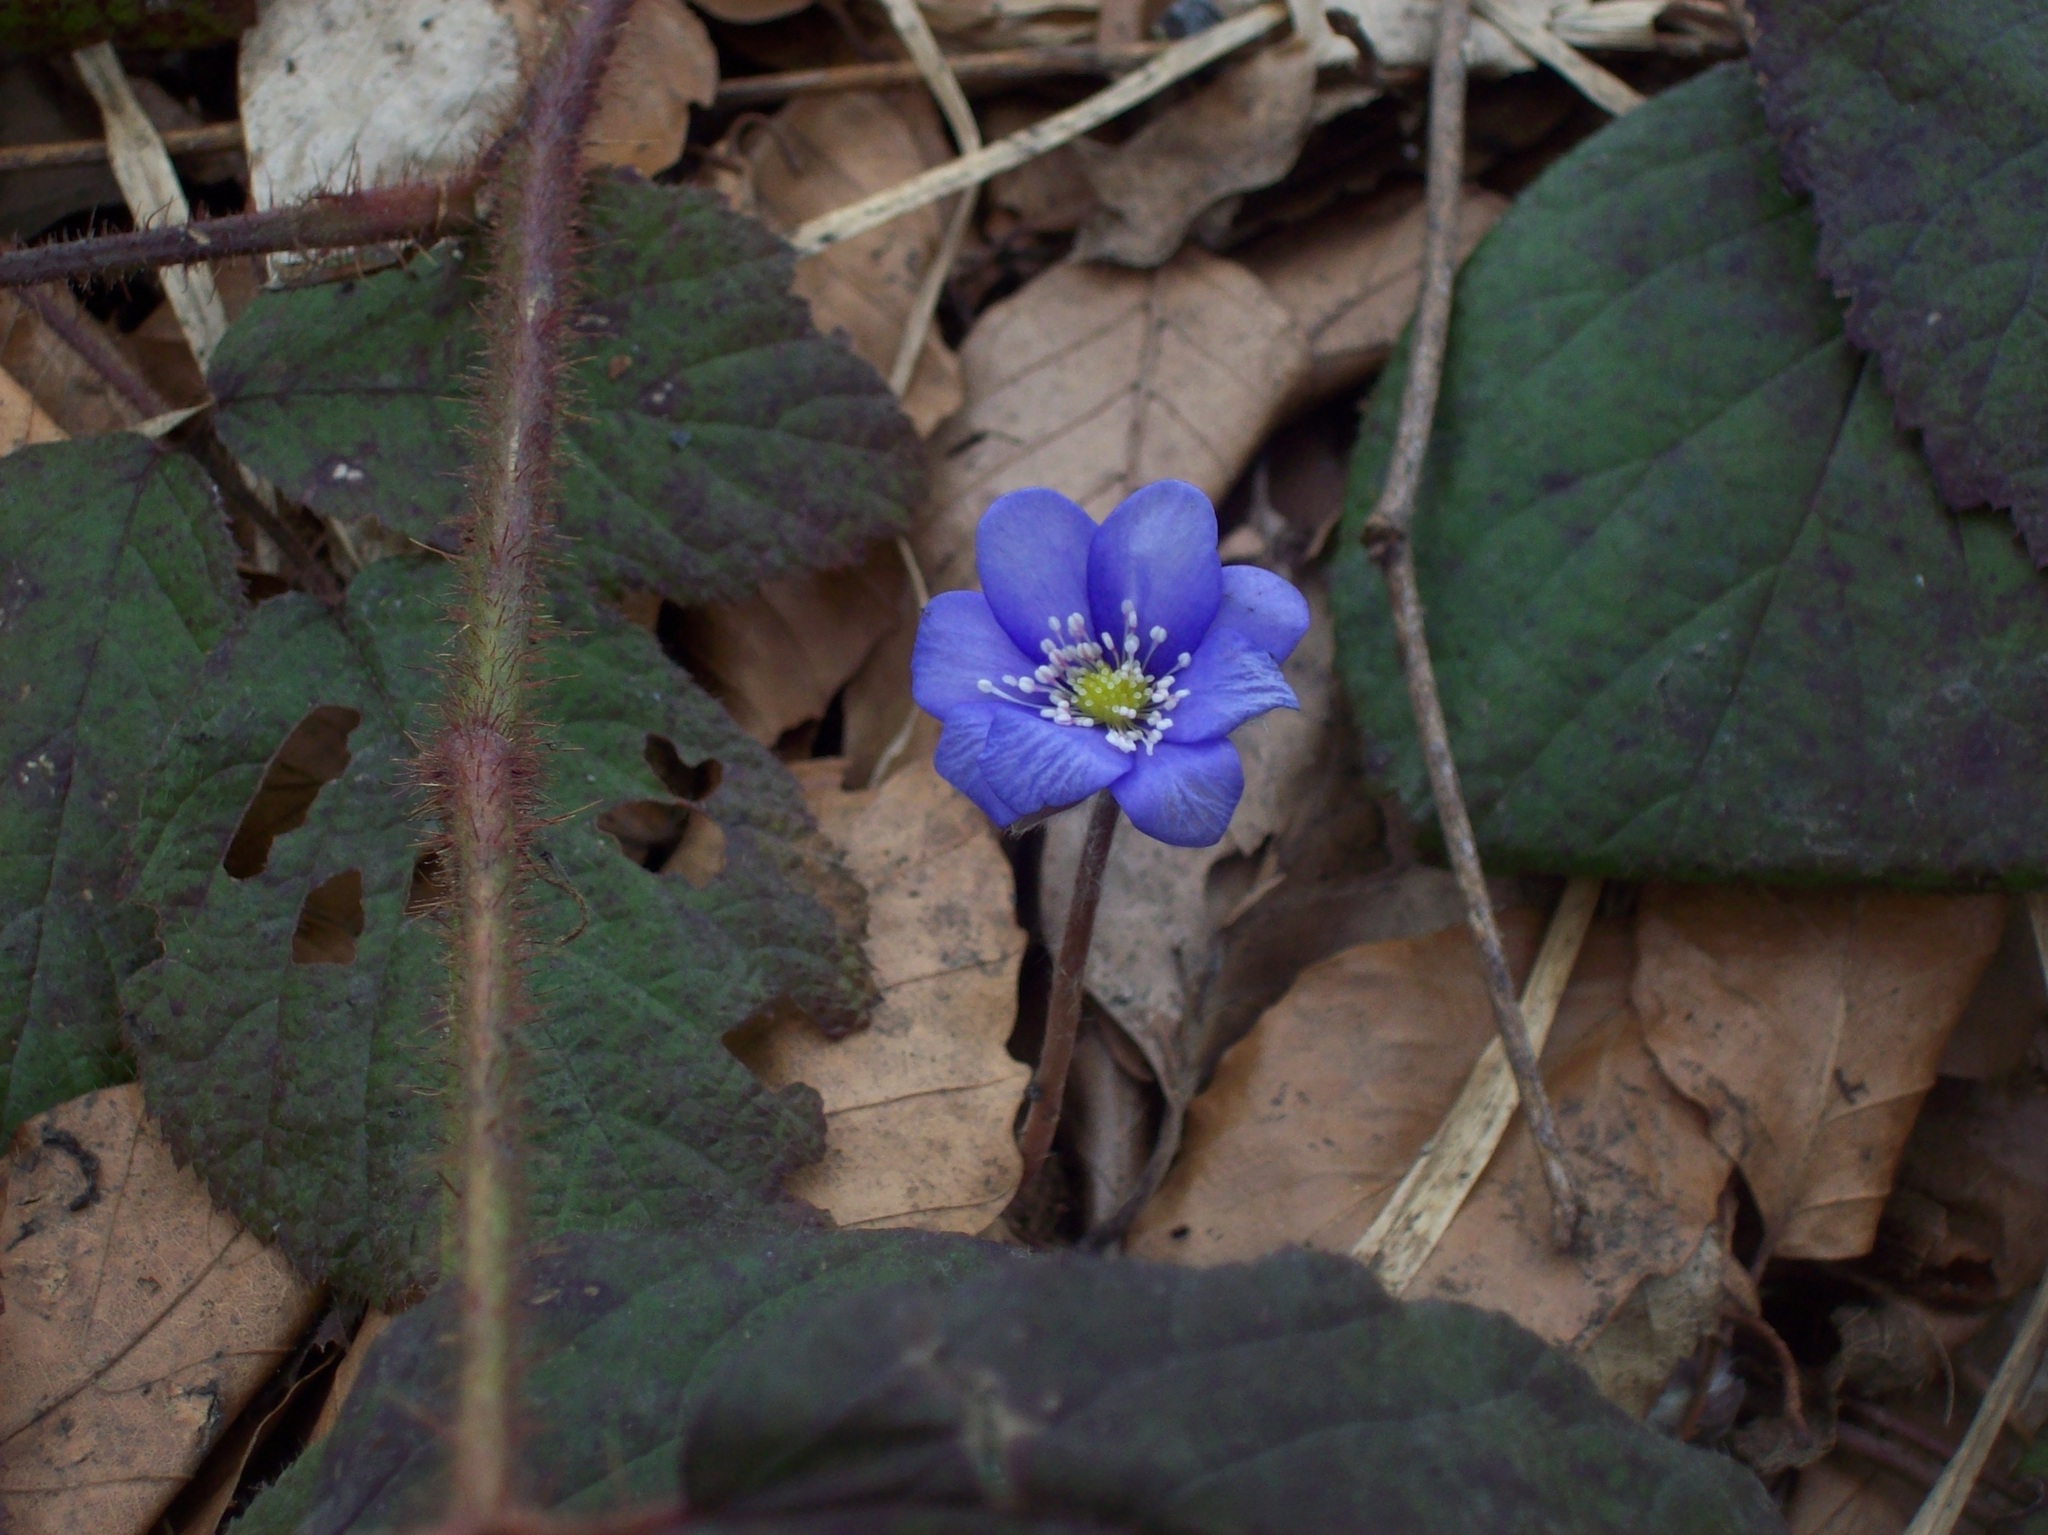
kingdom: Plantae
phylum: Tracheophyta
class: Magnoliopsida
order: Ranunculales
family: Ranunculaceae
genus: Hepatica
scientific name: Hepatica nobilis
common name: Liverleaf
